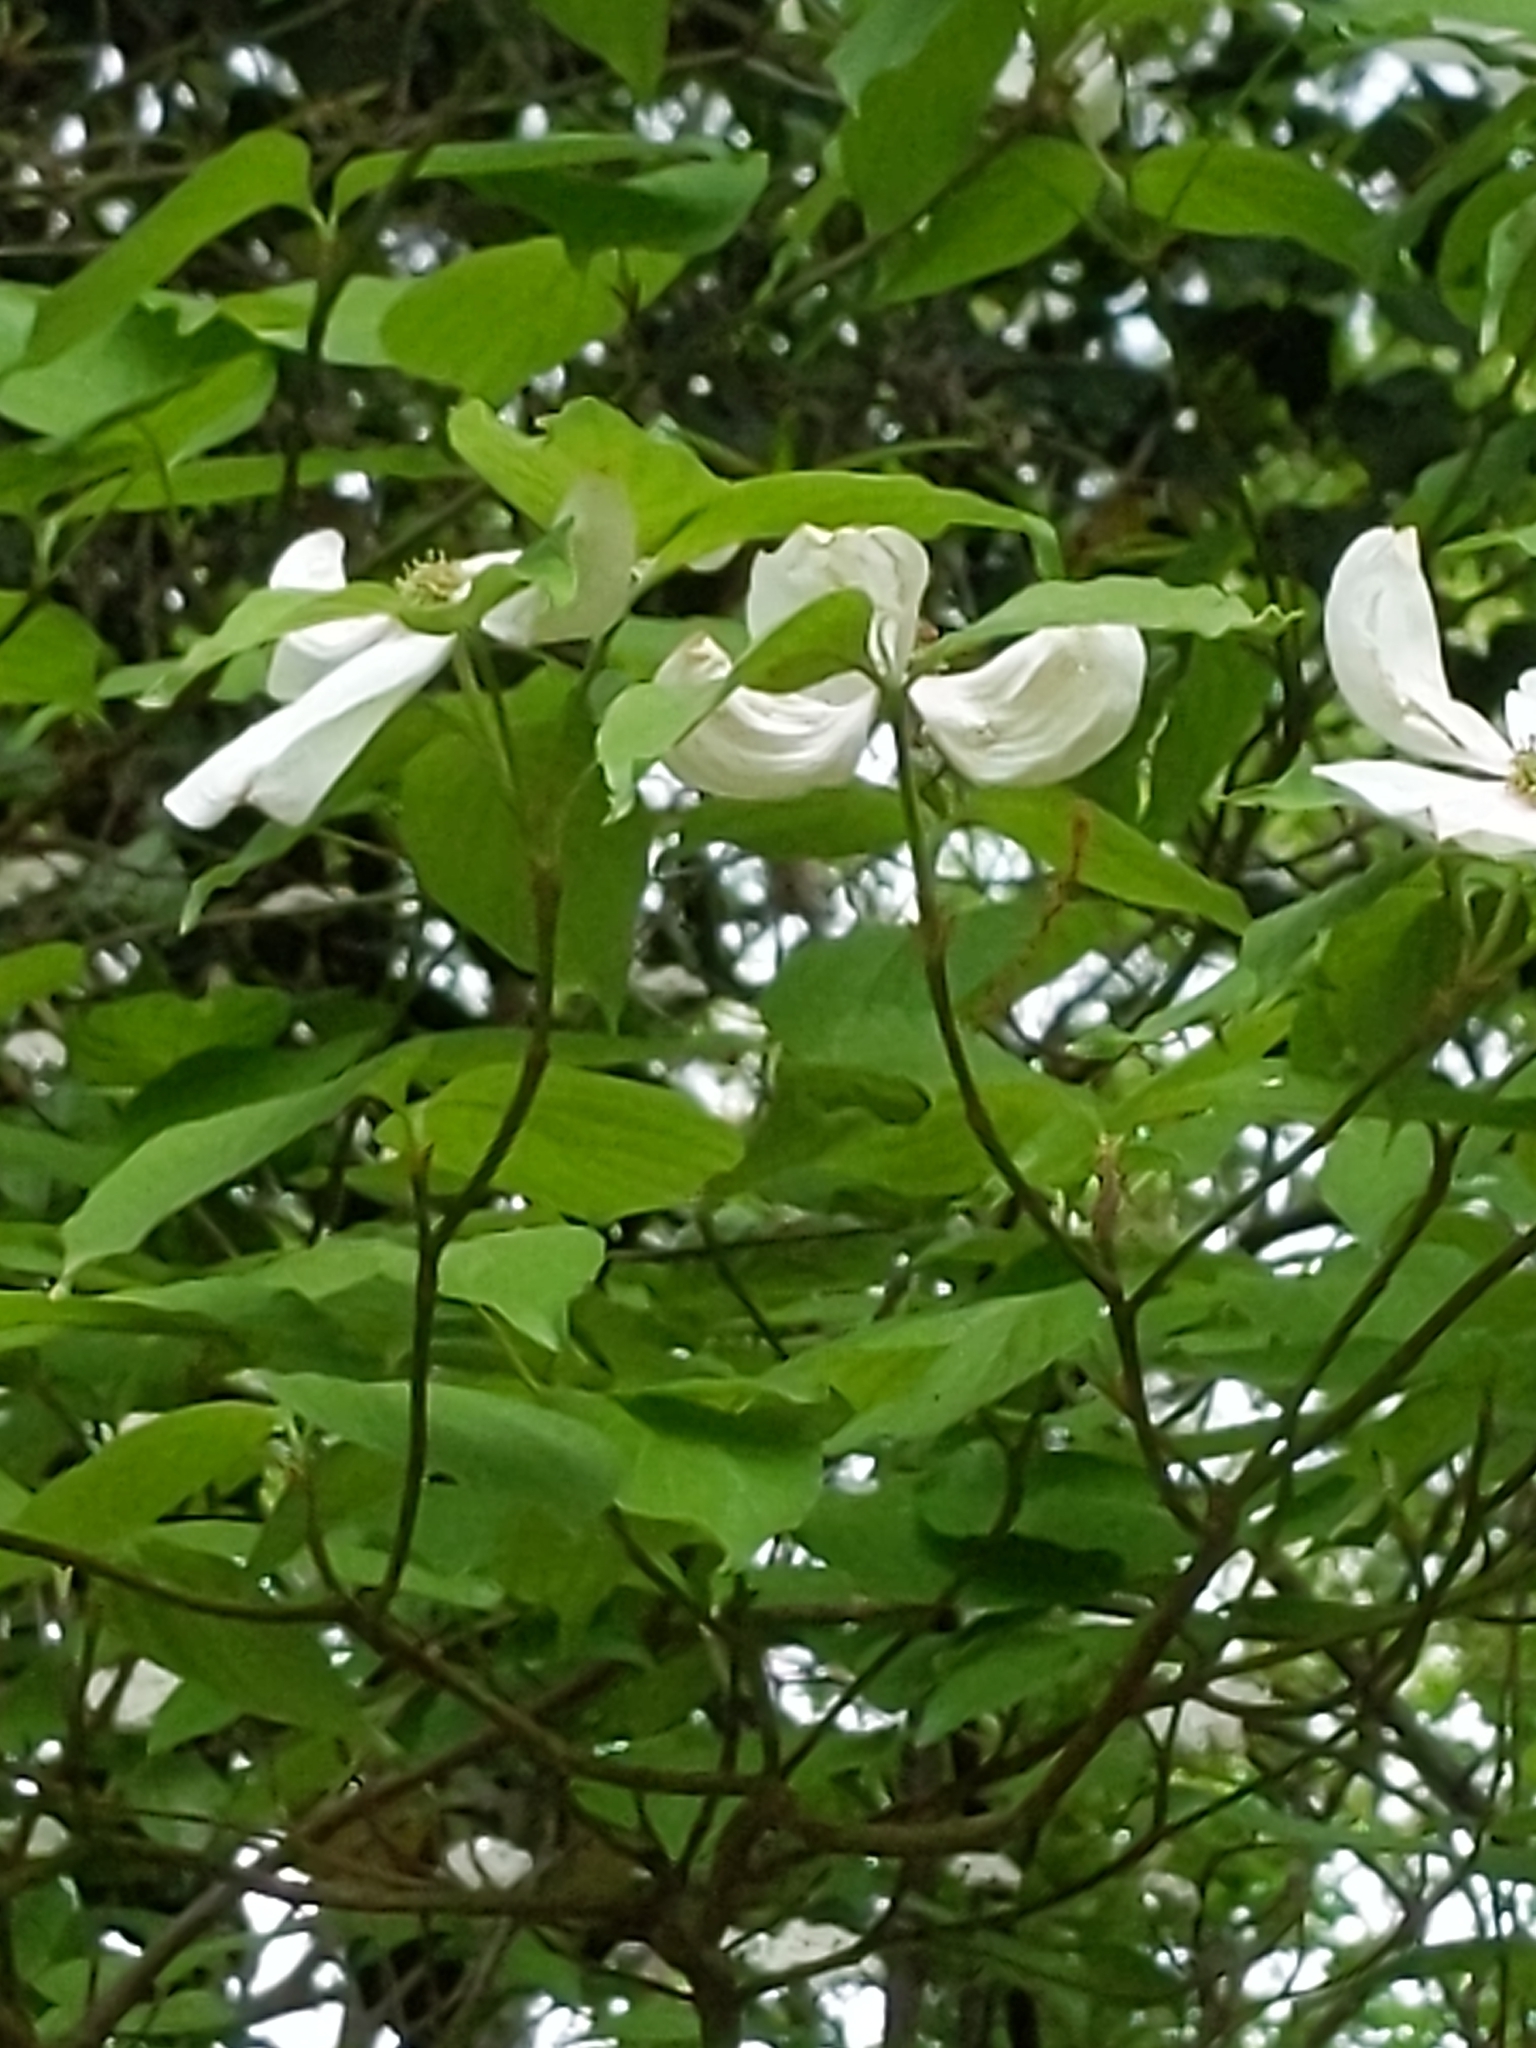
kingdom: Plantae
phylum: Tracheophyta
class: Magnoliopsida
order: Cornales
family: Cornaceae
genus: Cornus
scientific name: Cornus florida
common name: Flowering dogwood
